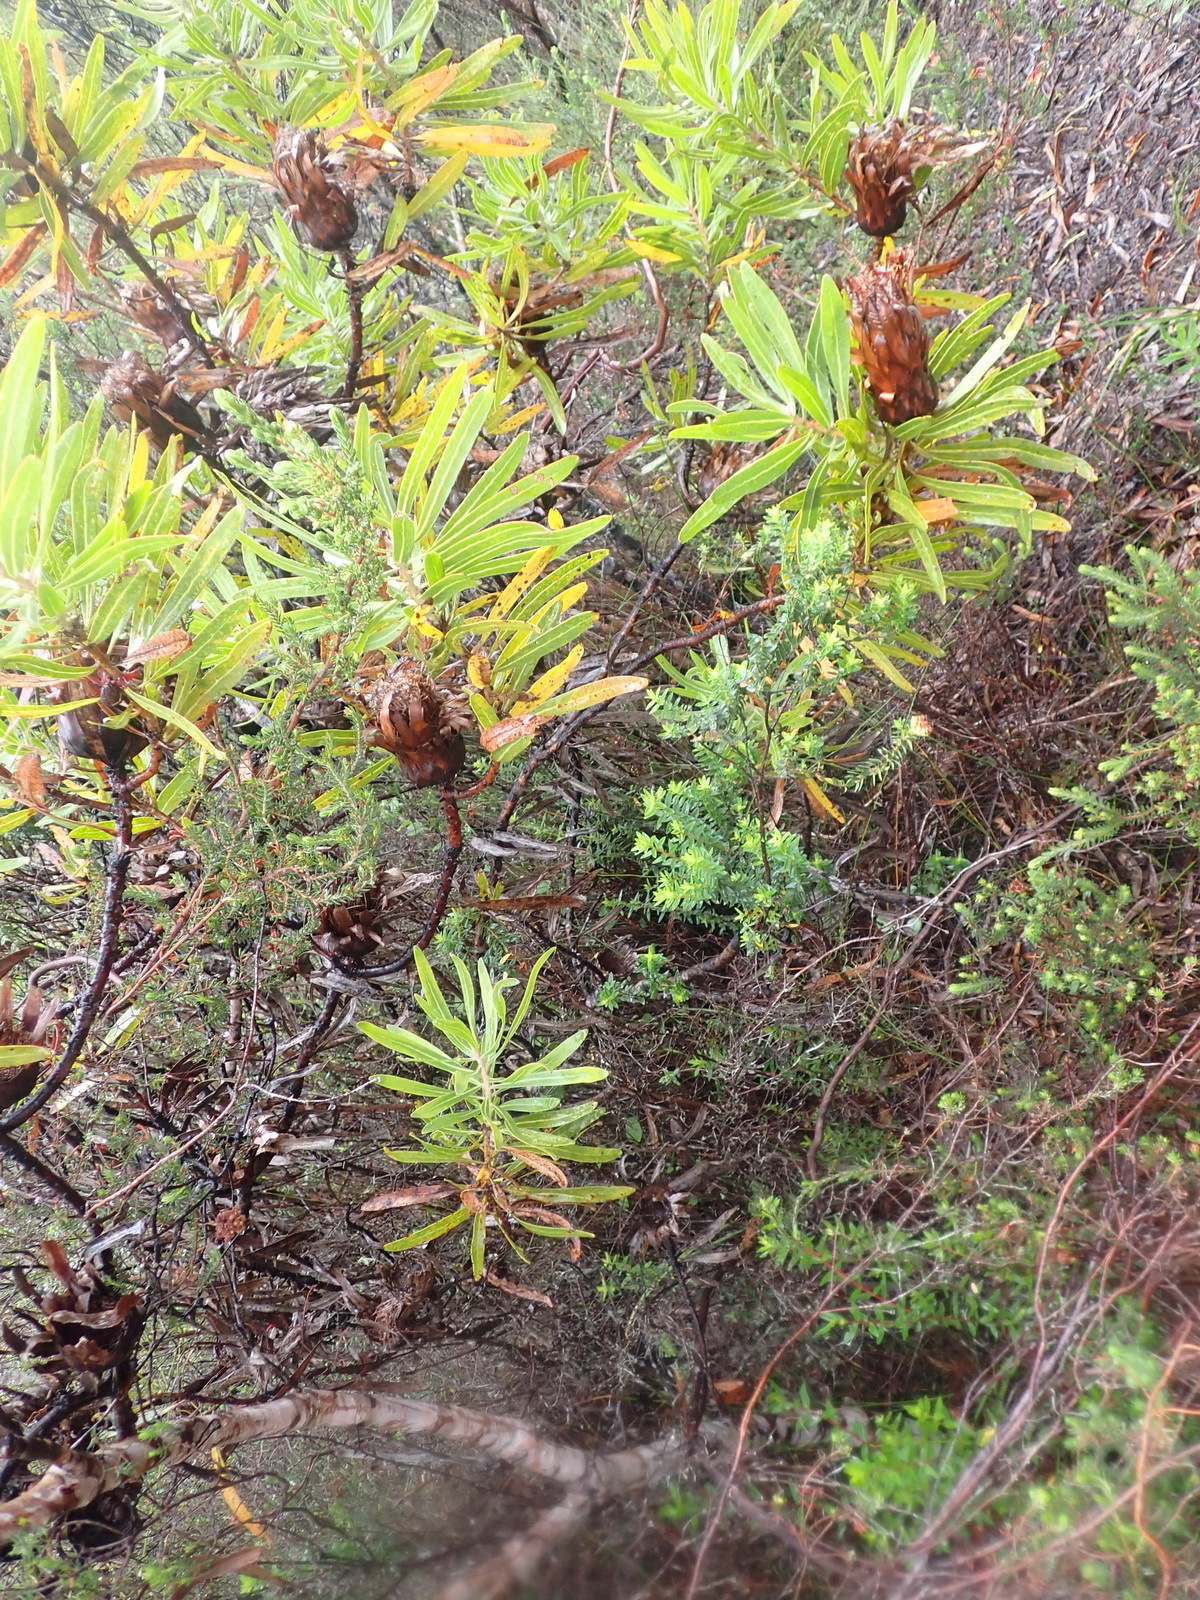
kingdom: Plantae
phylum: Tracheophyta
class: Magnoliopsida
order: Proteales
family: Proteaceae
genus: Protea
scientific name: Protea neriifolia
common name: Blue sugarbush
